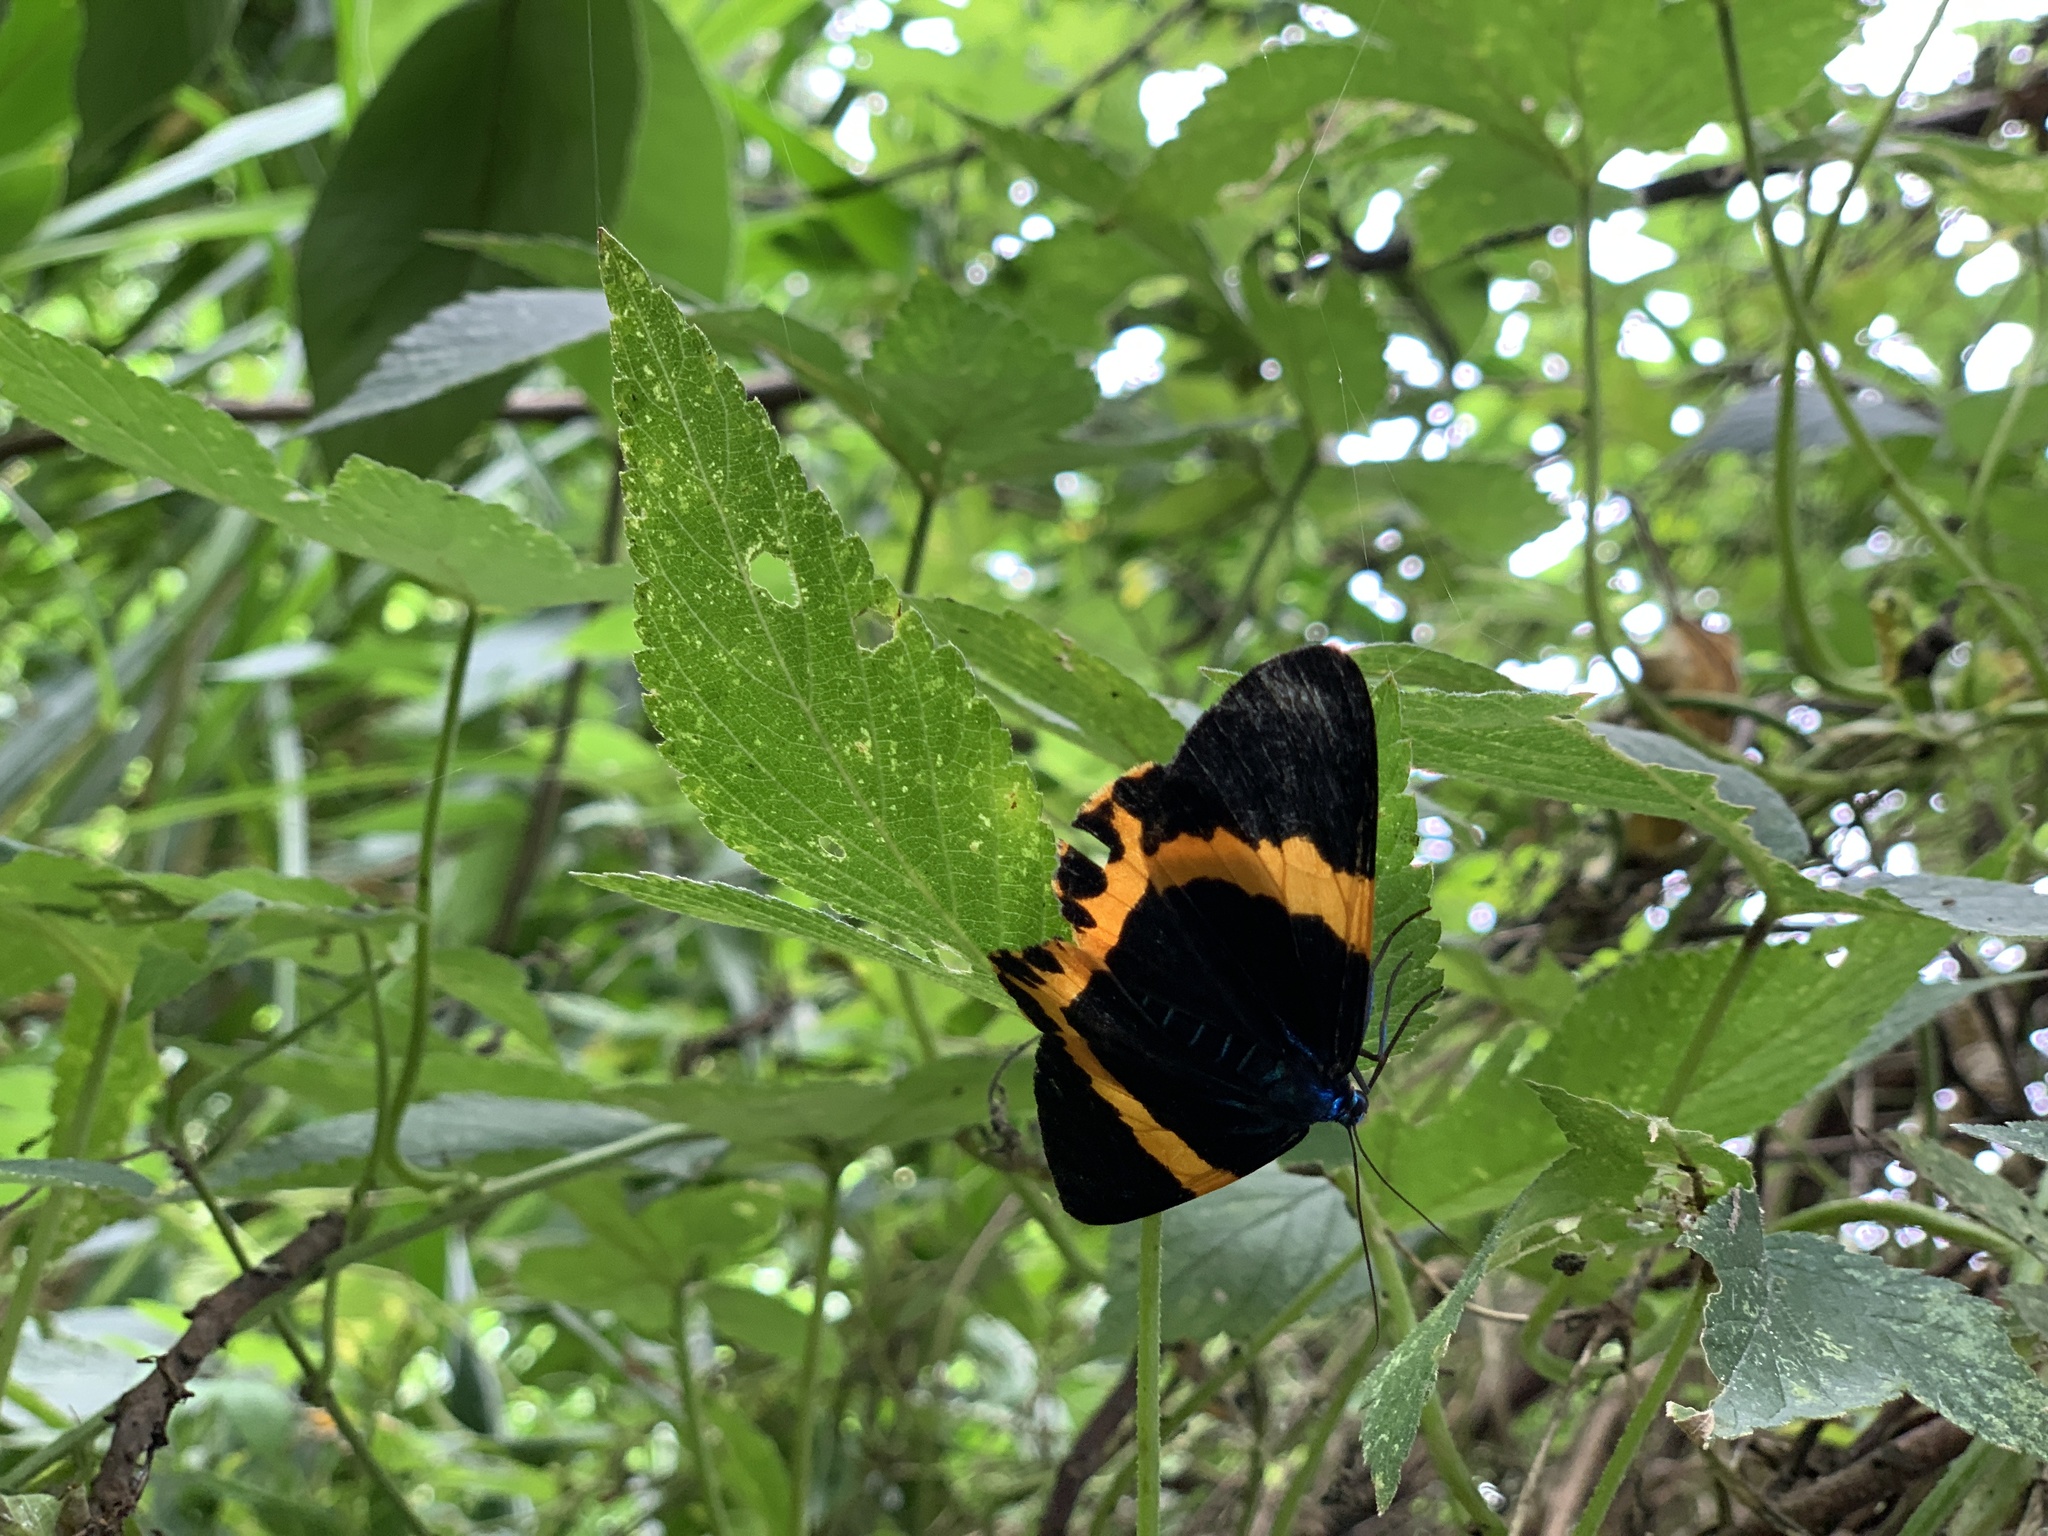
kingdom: Animalia
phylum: Arthropoda
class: Insecta
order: Lepidoptera
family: Geometridae
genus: Milionia
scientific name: Milionia basalis
